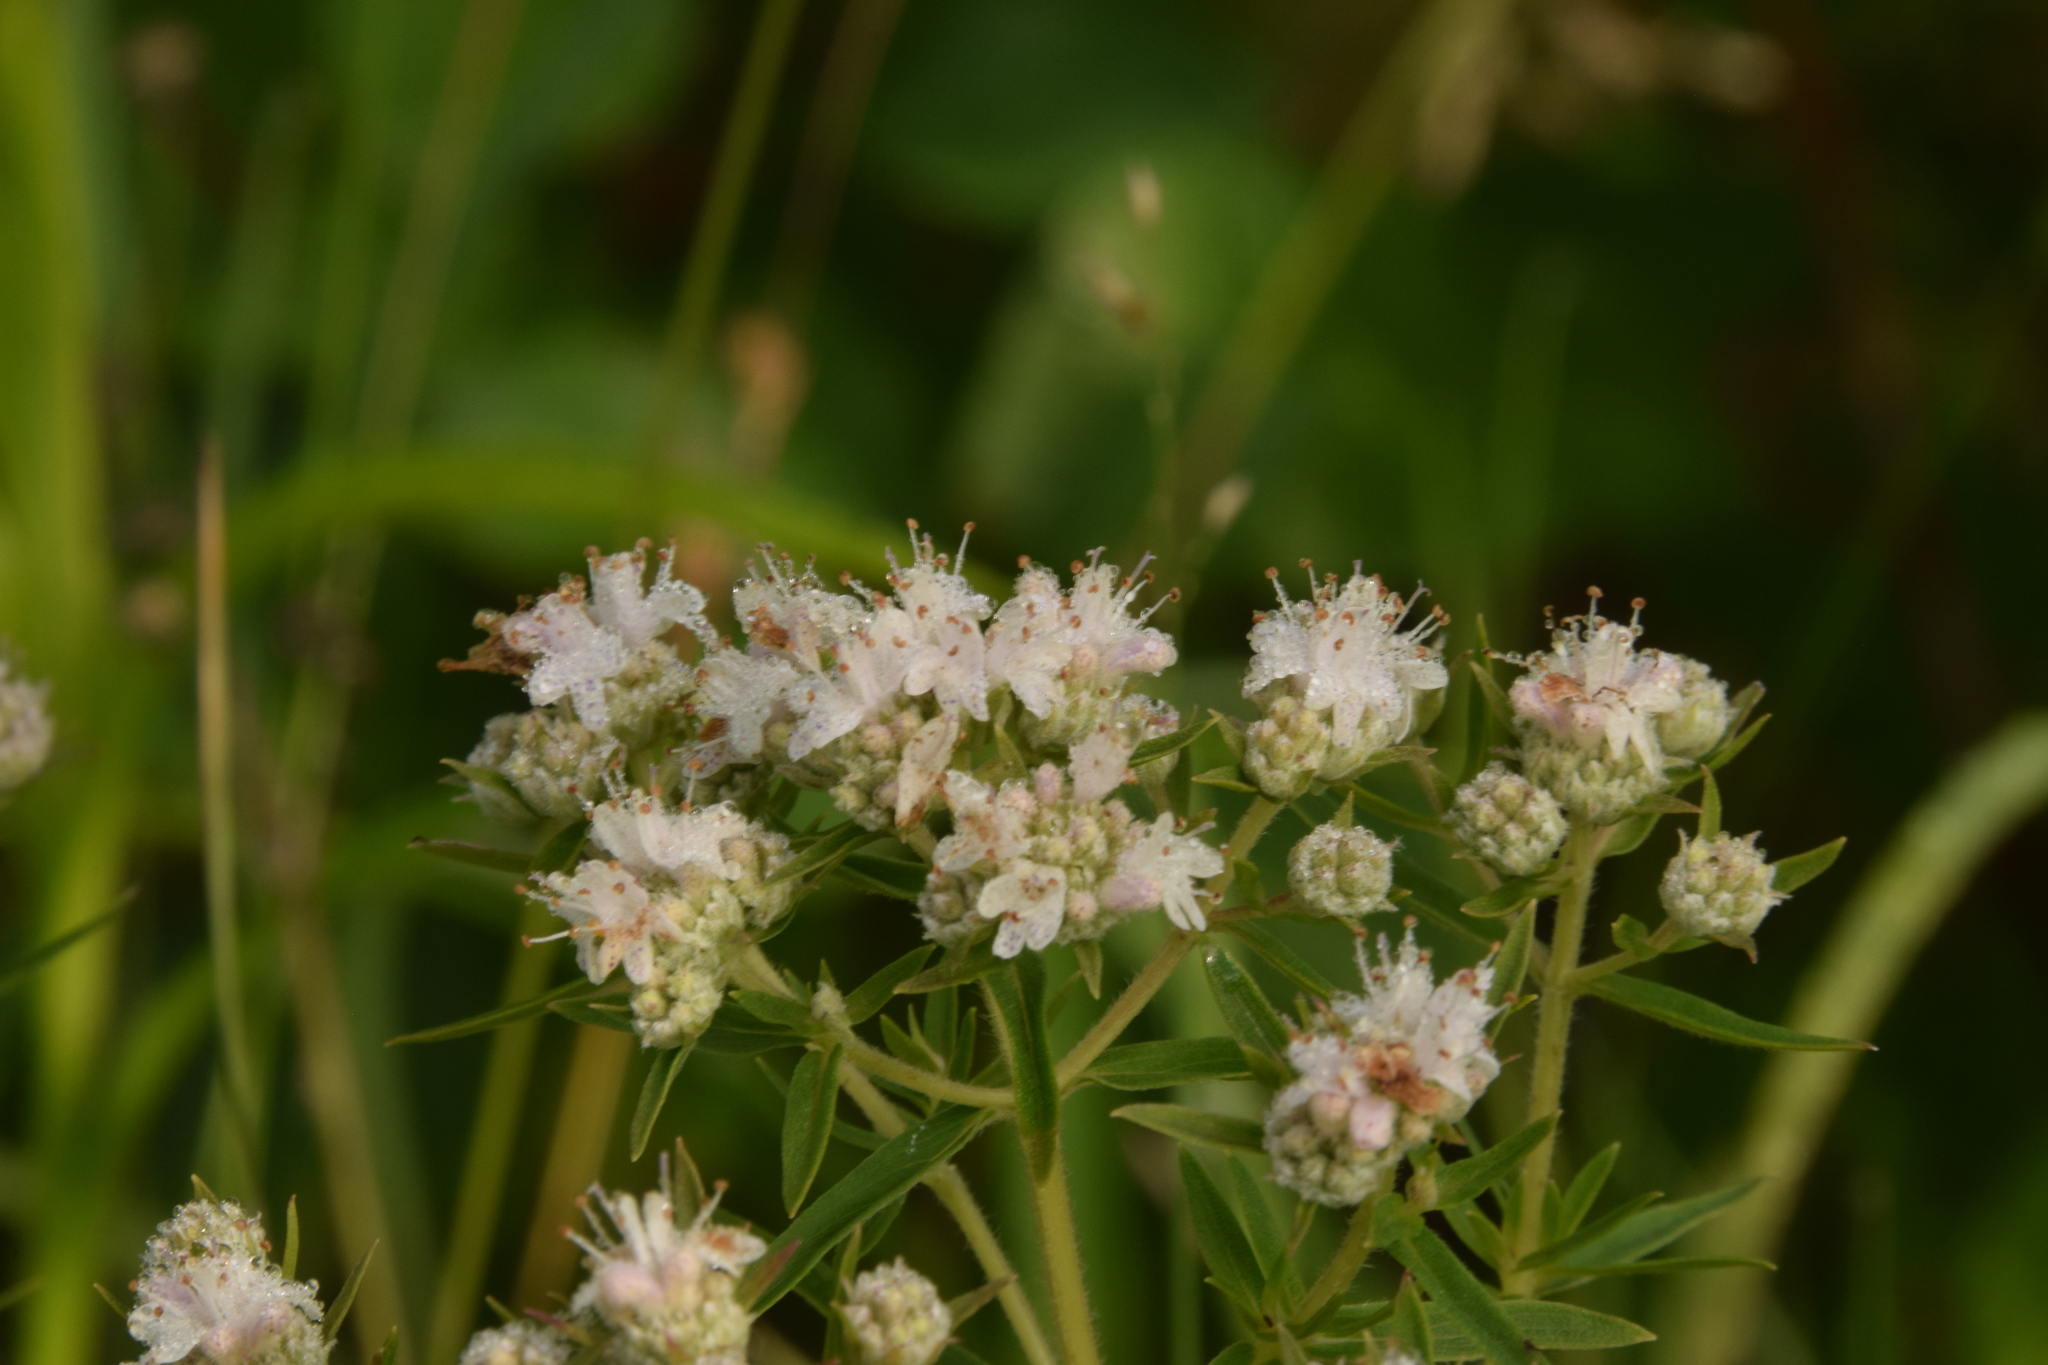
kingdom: Plantae
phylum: Tracheophyta
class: Magnoliopsida
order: Lamiales
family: Lamiaceae
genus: Pycnanthemum
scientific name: Pycnanthemum virginianum
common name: Virginia mountain-mint
